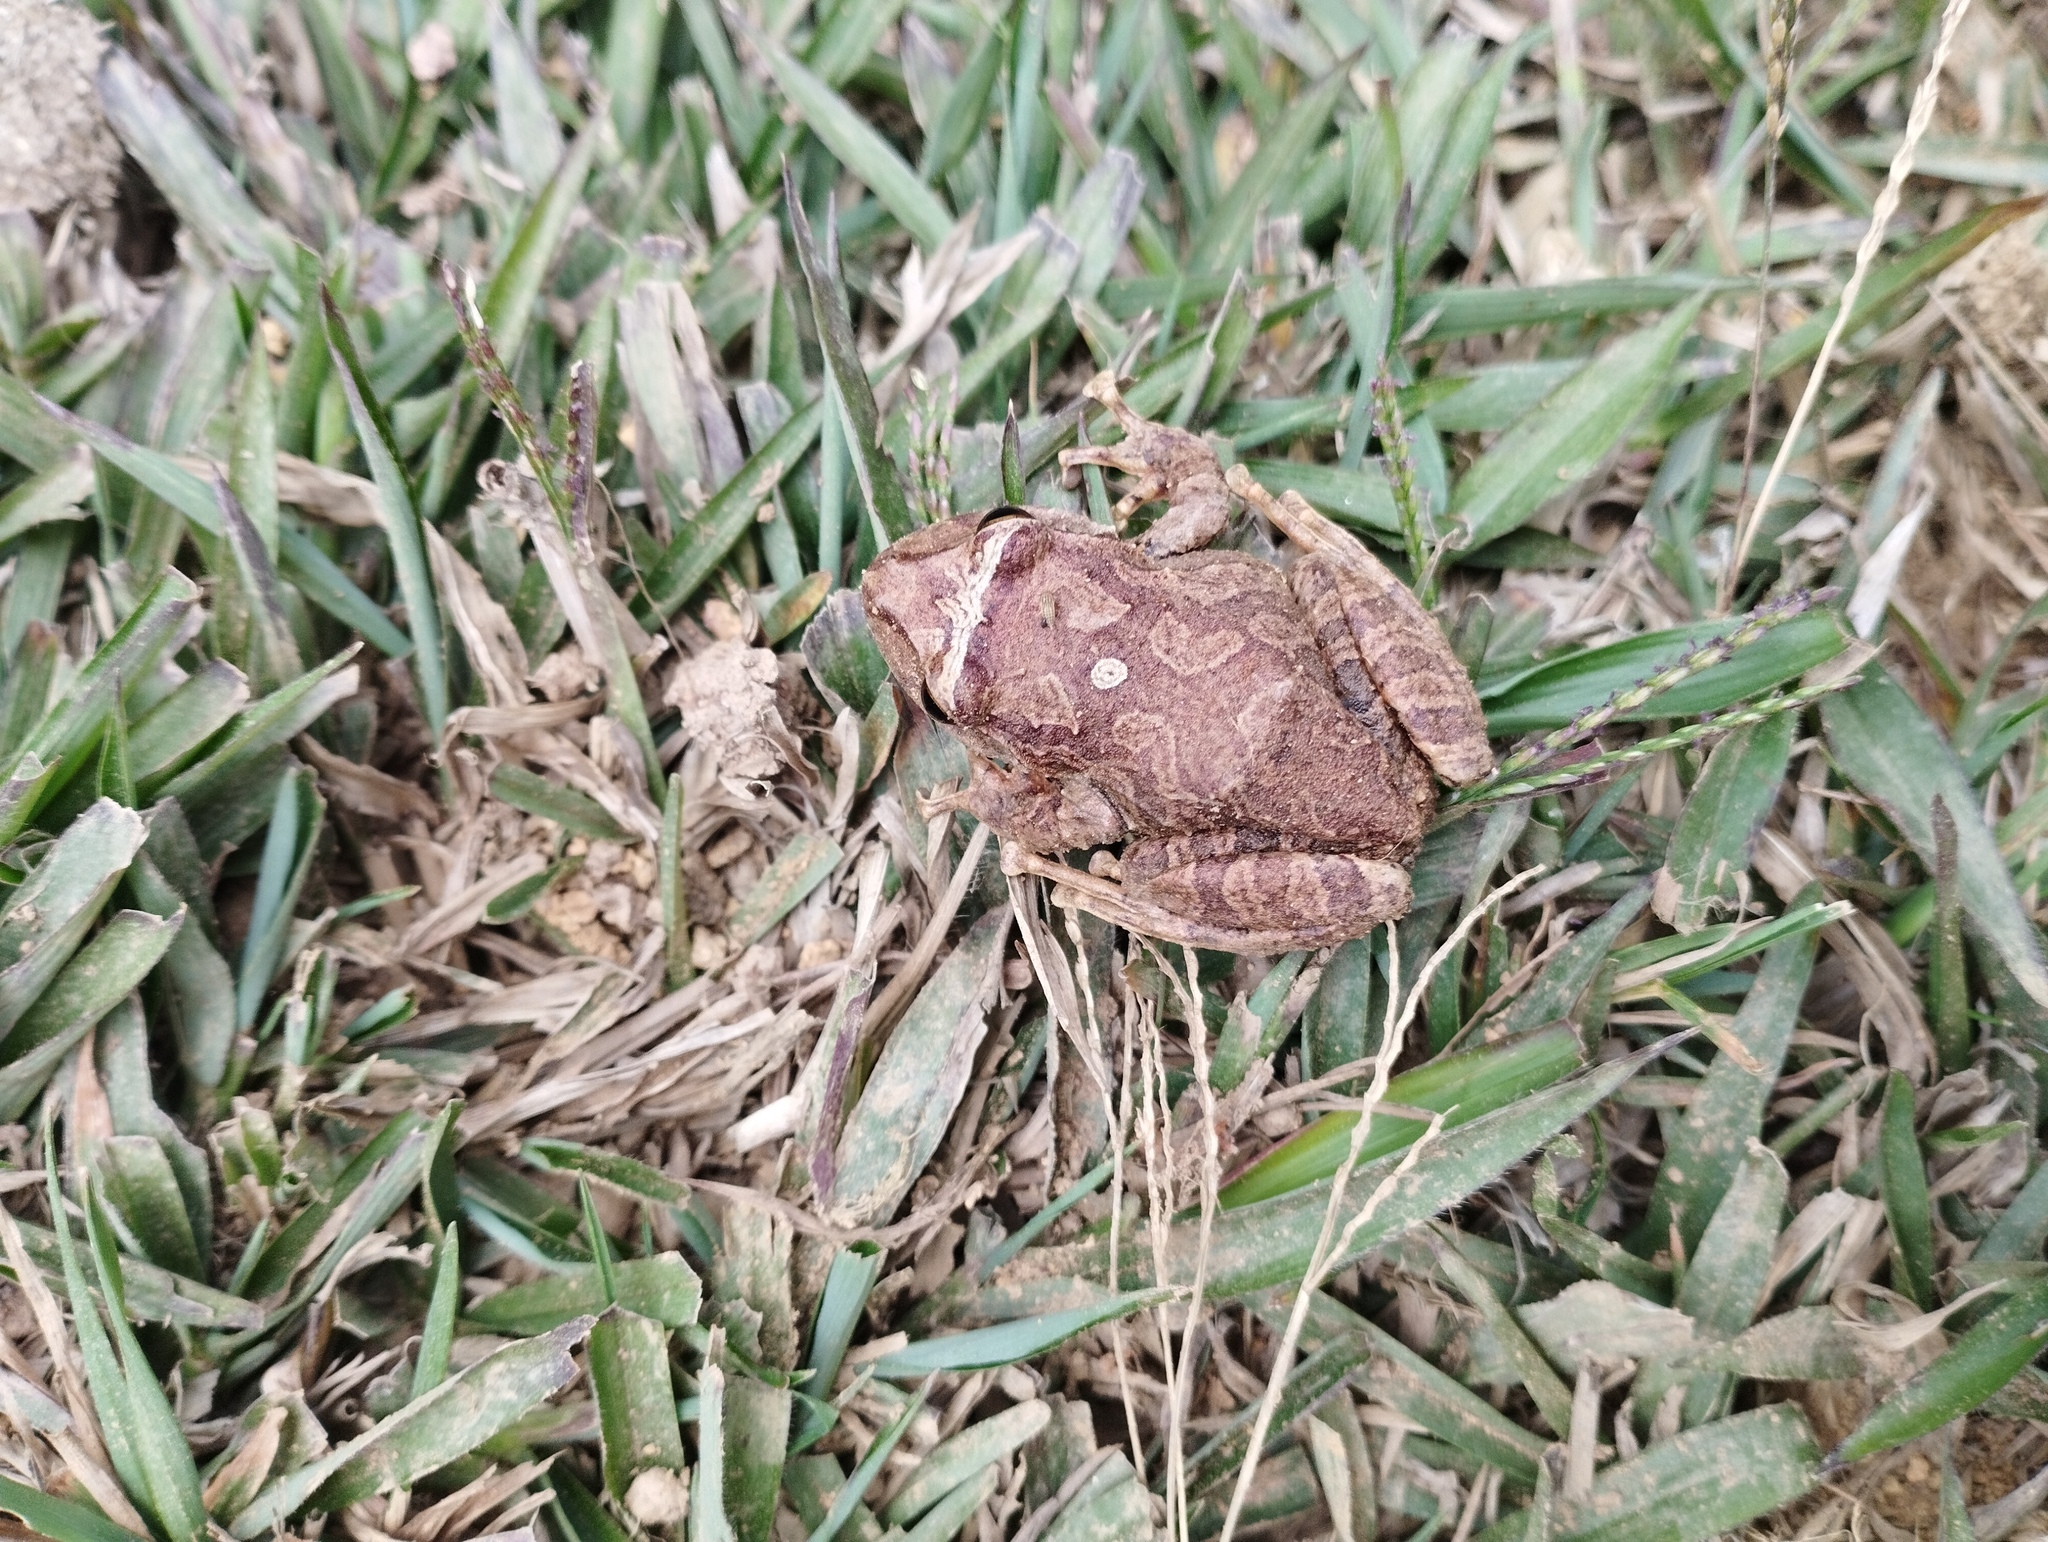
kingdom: Animalia
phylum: Chordata
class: Amphibia
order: Anura
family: Craugastoridae
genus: Pristimantis
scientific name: Pristimantis permixtus
